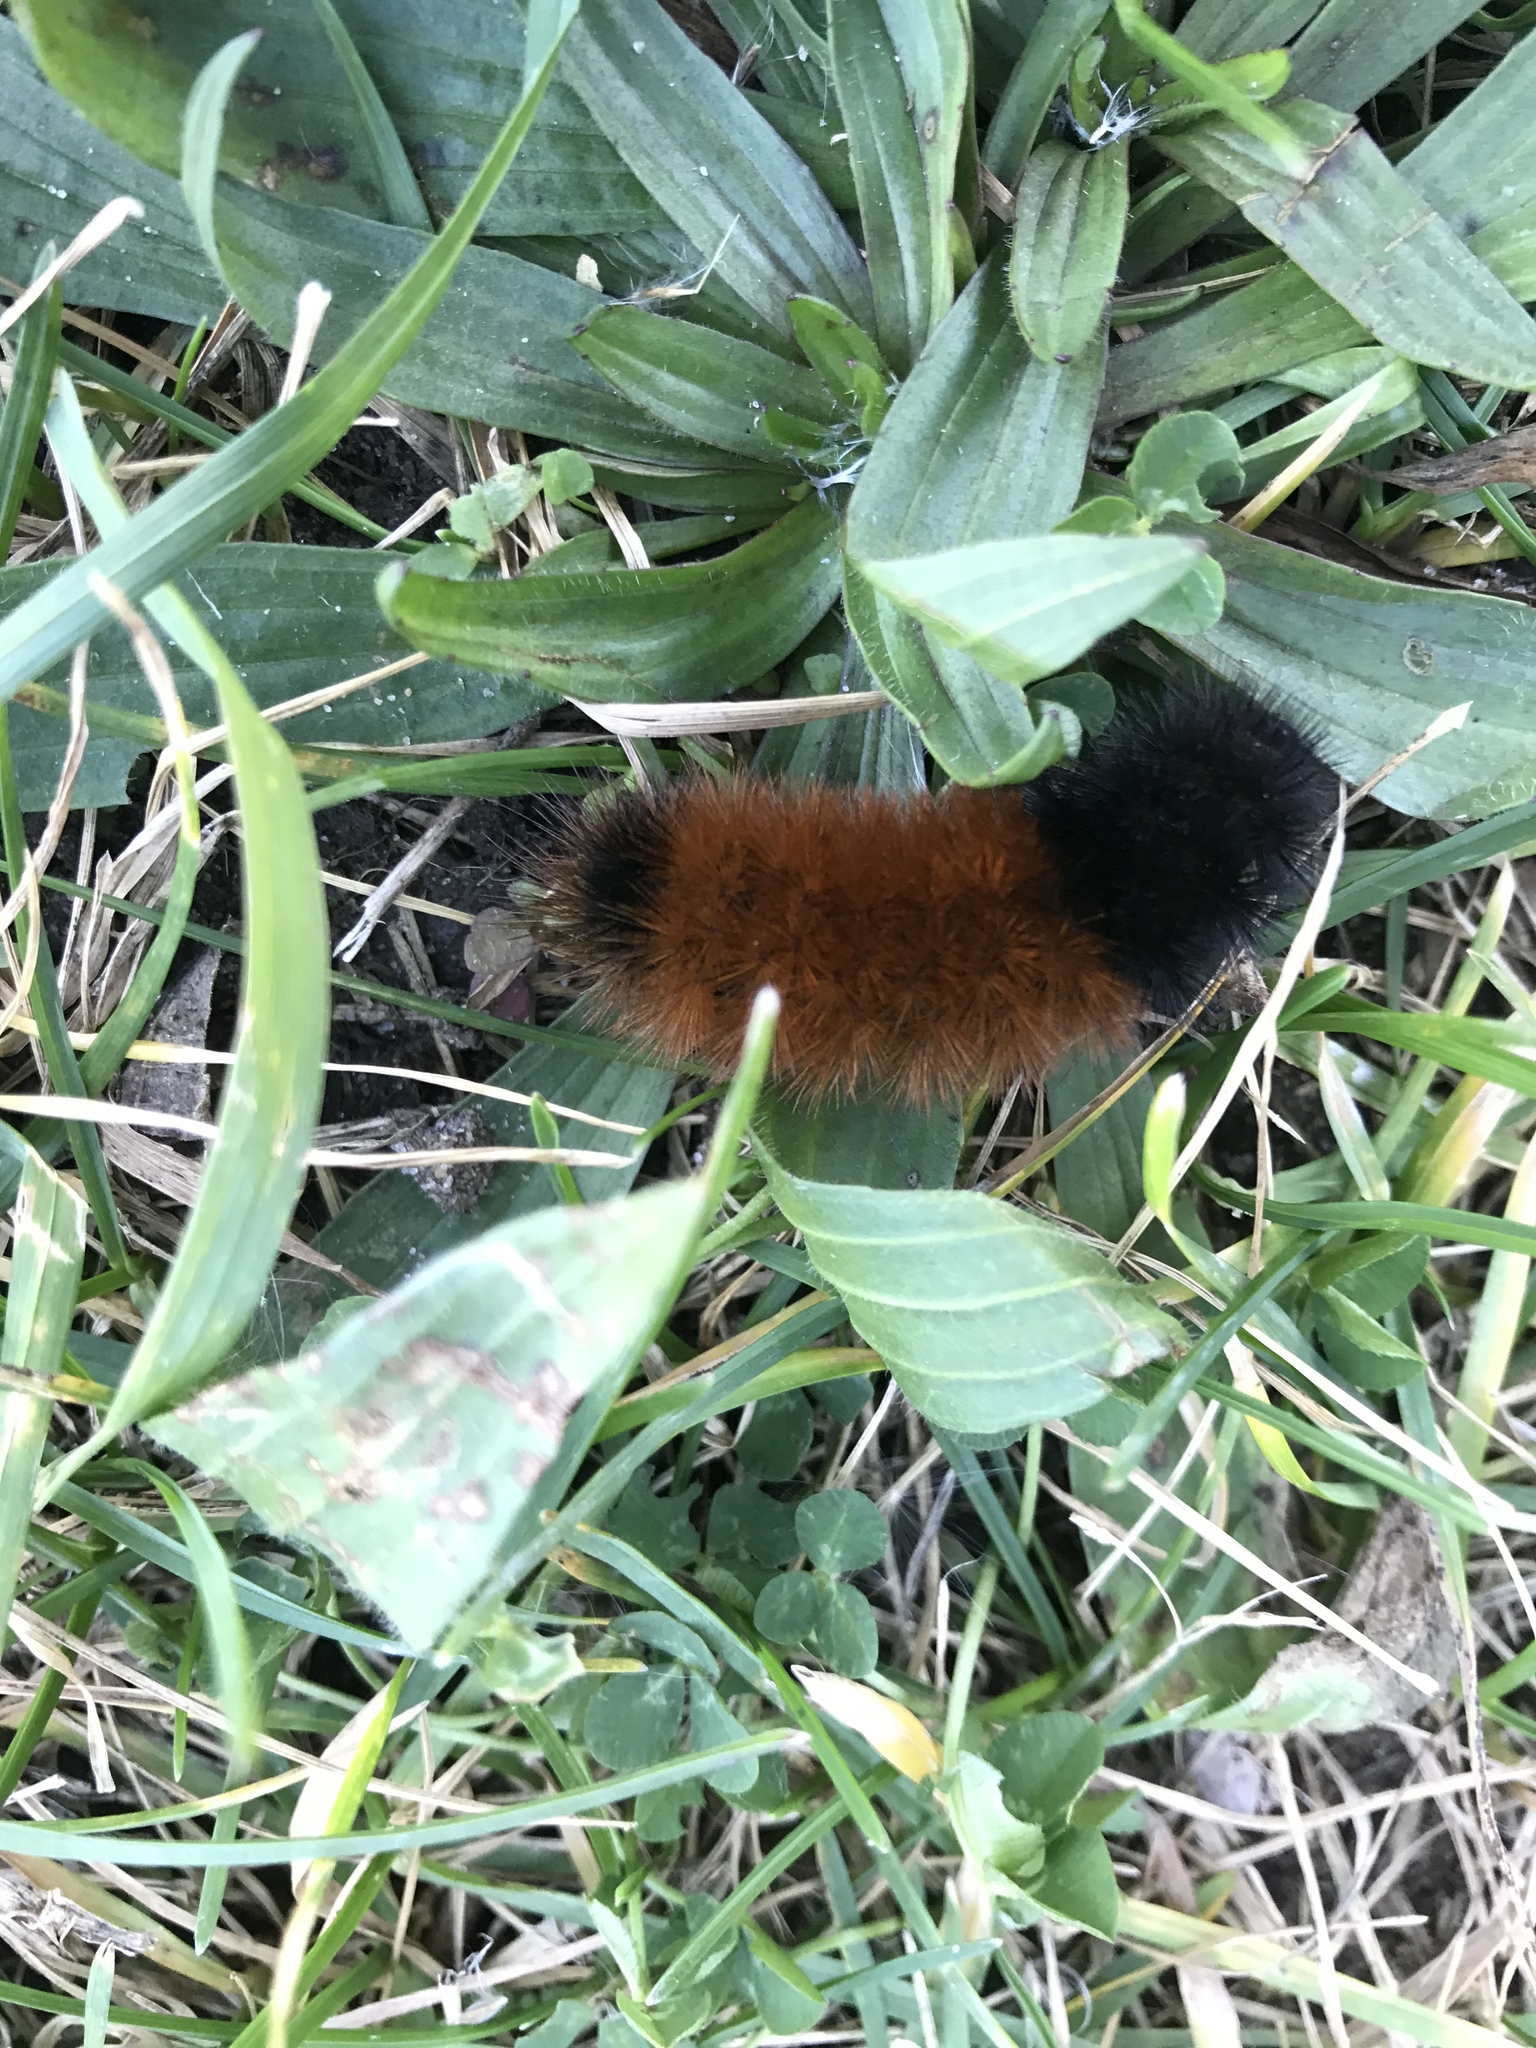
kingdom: Animalia
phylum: Arthropoda
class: Insecta
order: Lepidoptera
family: Erebidae
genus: Pyrrharctia
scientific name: Pyrrharctia isabella
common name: Isabella tiger moth
